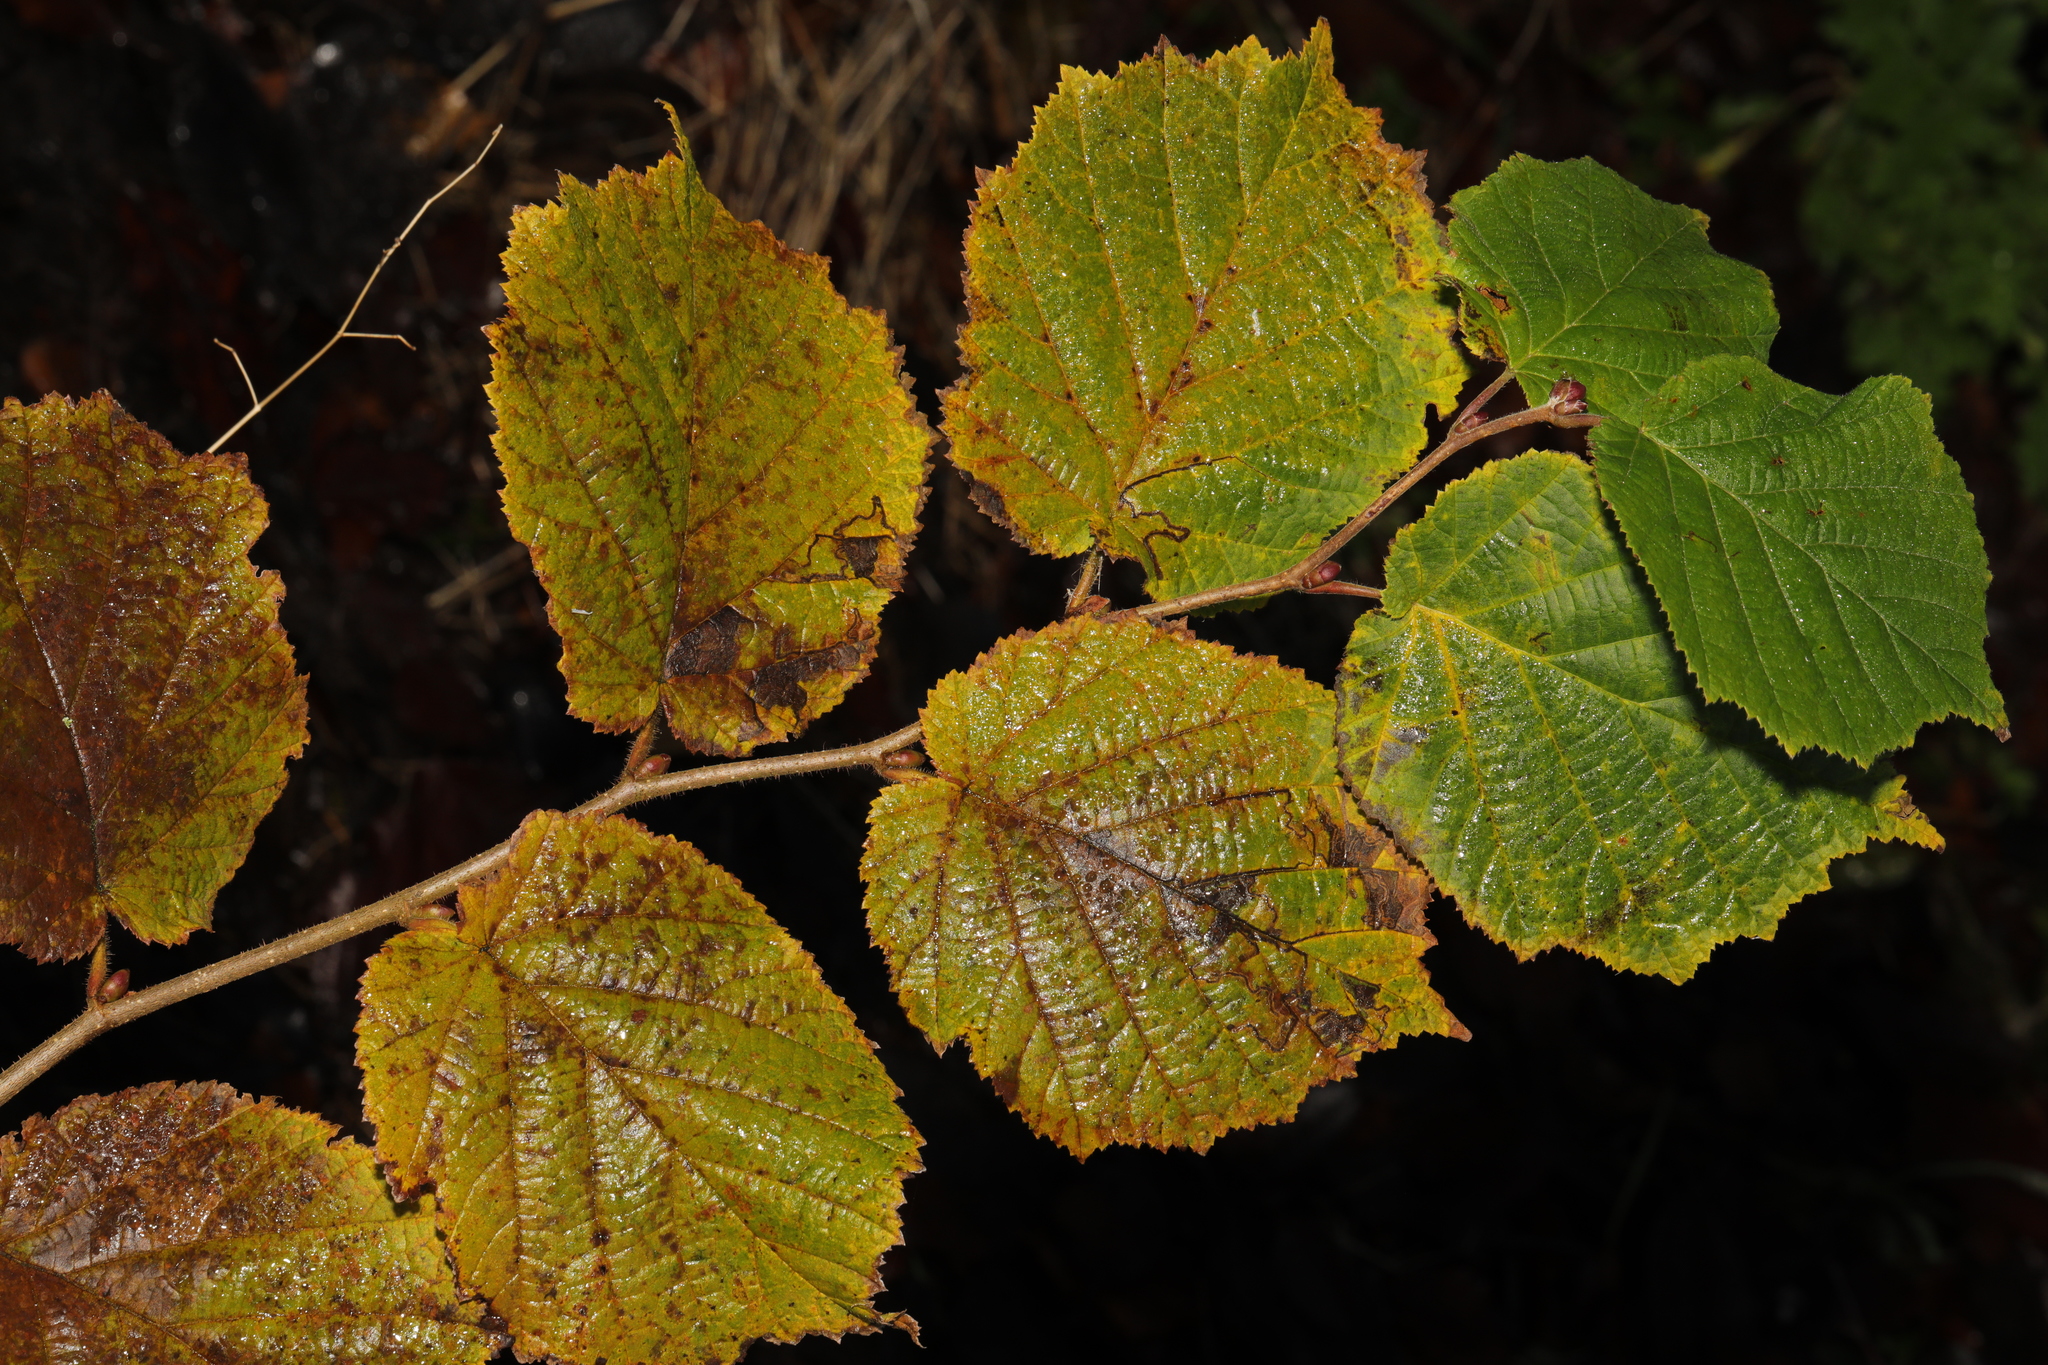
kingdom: Plantae
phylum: Tracheophyta
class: Magnoliopsida
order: Fagales
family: Betulaceae
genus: Corylus
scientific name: Corylus avellana
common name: European hazel
